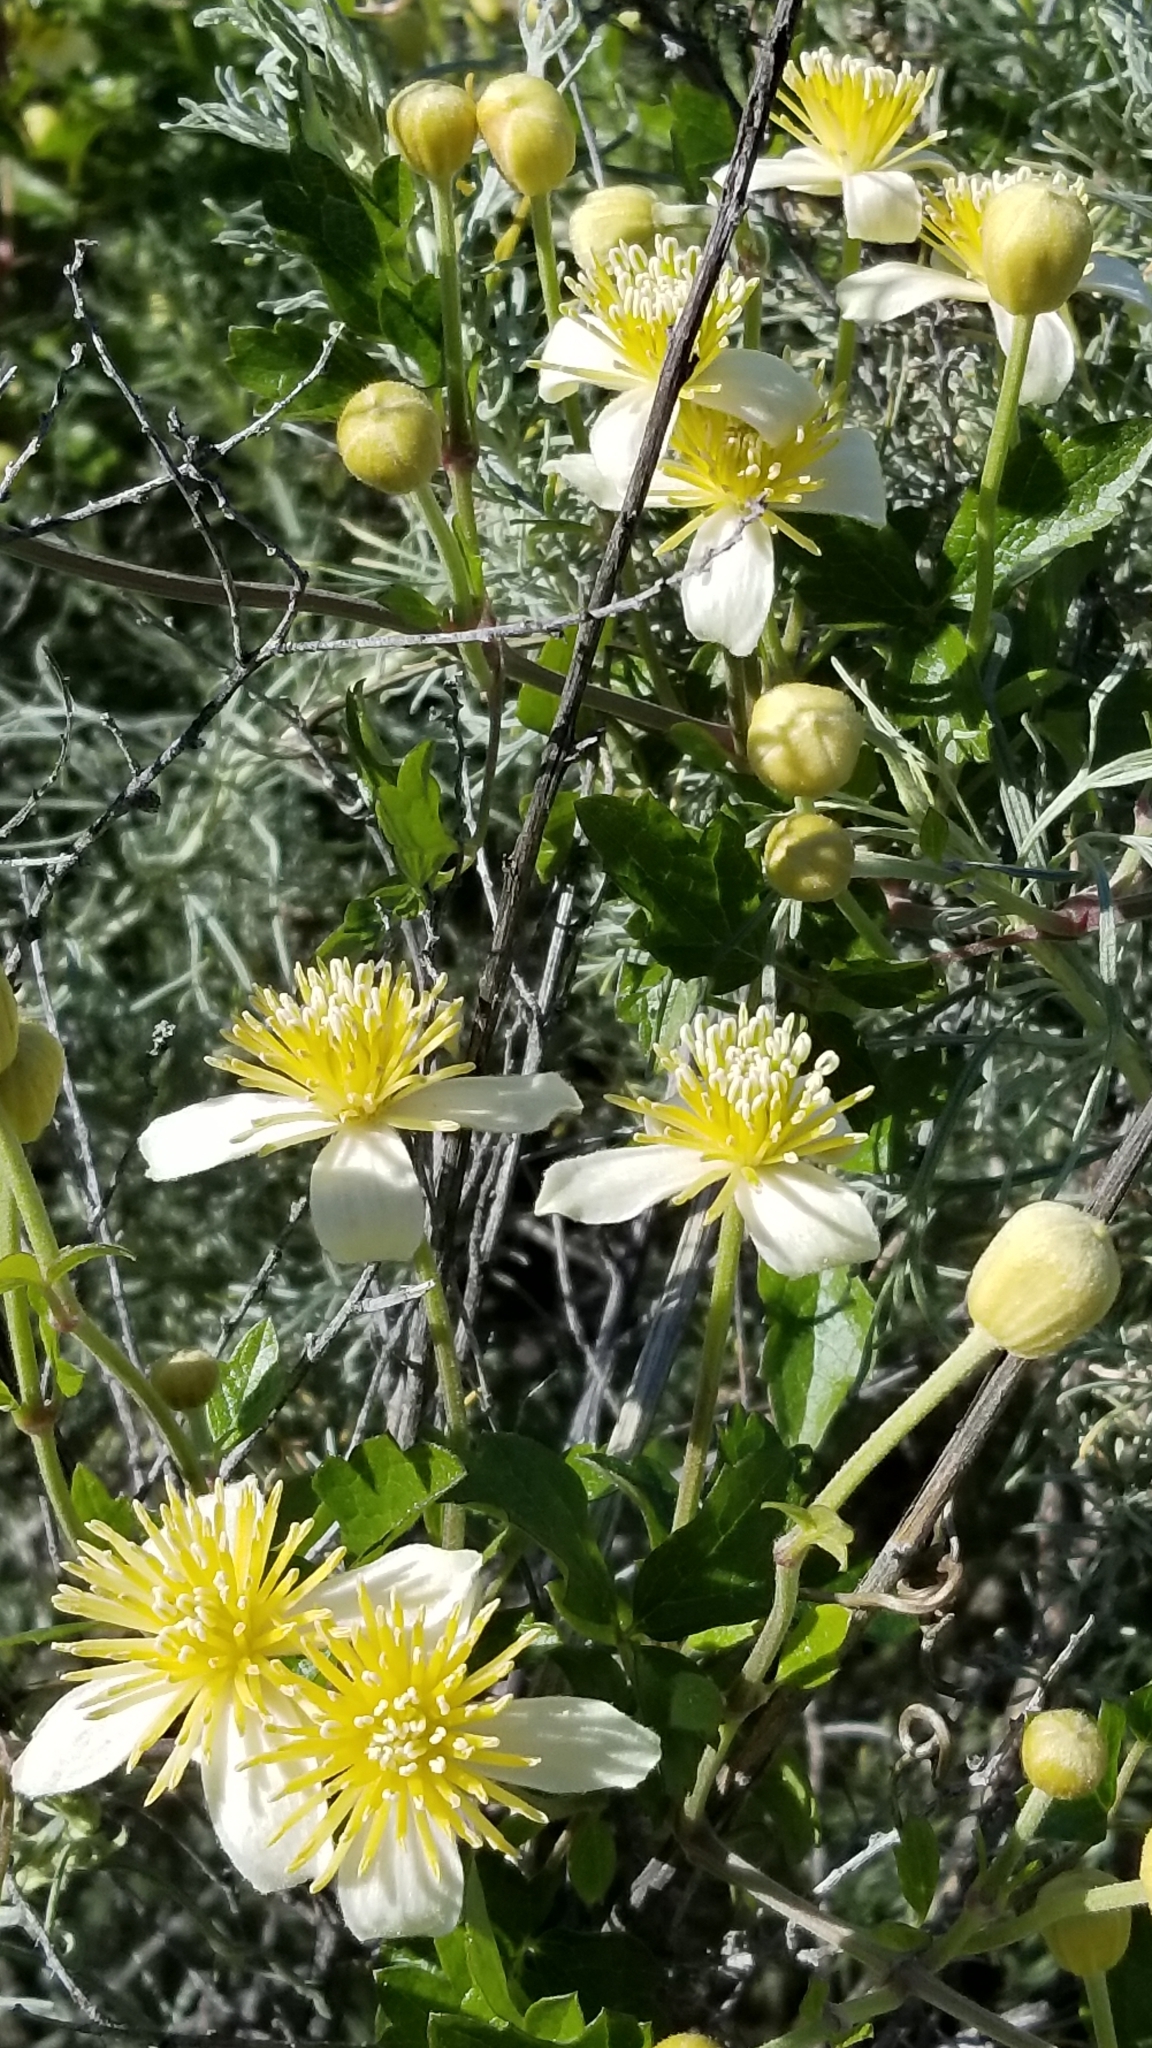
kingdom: Plantae
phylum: Tracheophyta
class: Magnoliopsida
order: Ranunculales
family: Ranunculaceae
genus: Clematis
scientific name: Clematis lasiantha
